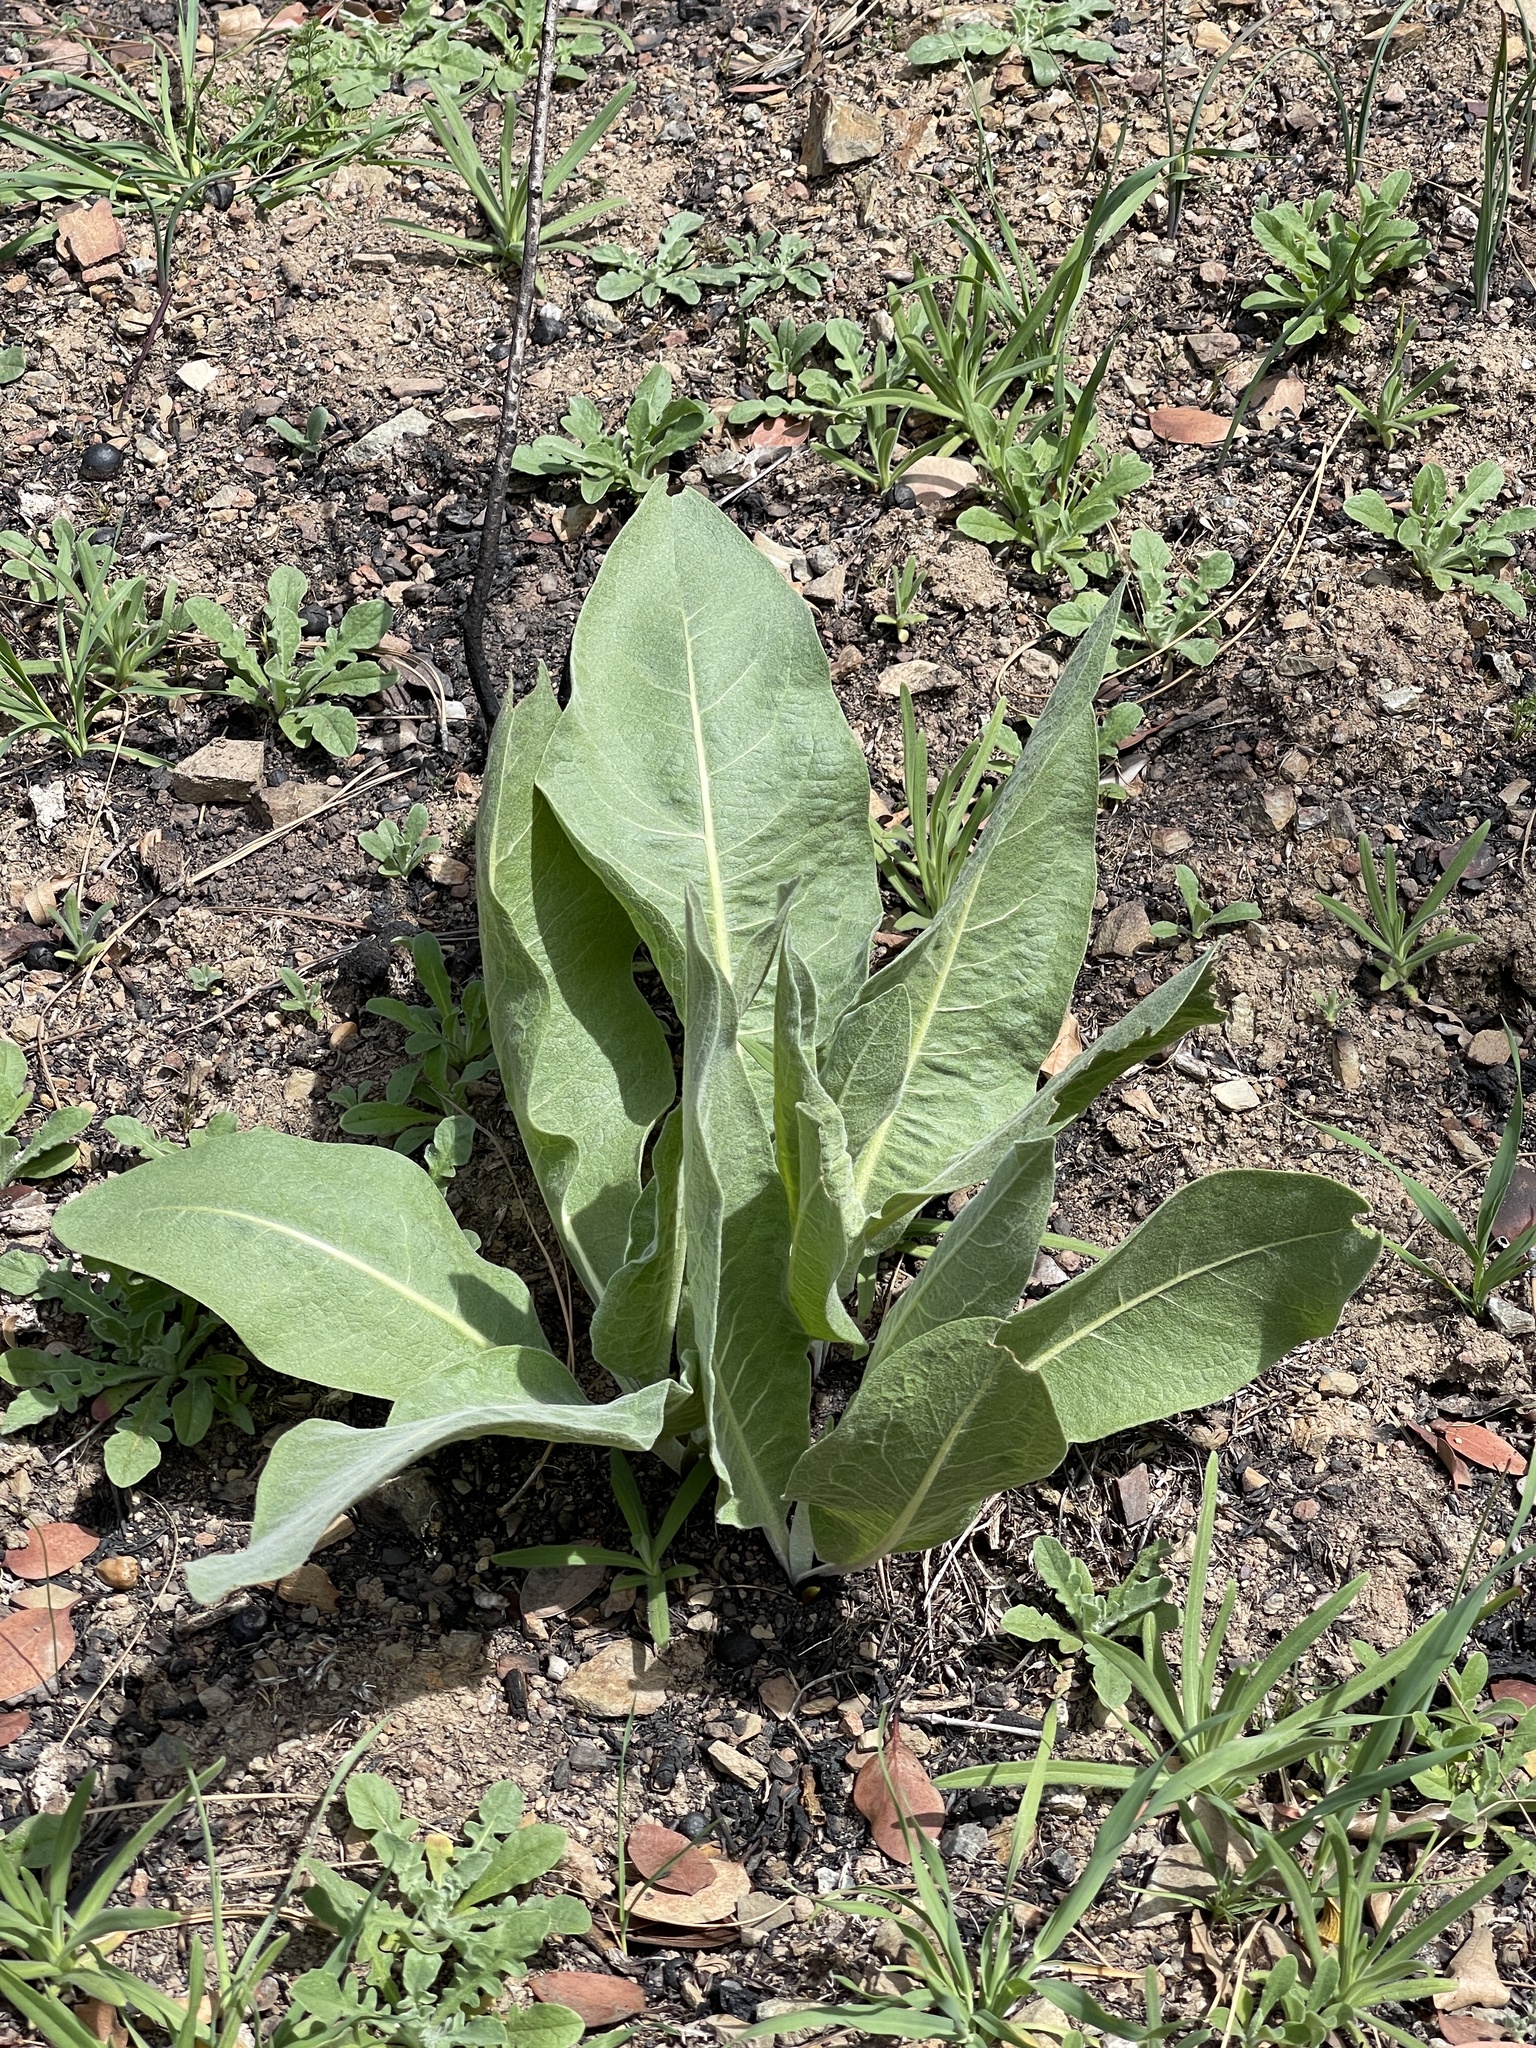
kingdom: Plantae
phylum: Tracheophyta
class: Magnoliopsida
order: Asterales
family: Asteraceae
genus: Wyethia
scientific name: Wyethia helenioides
